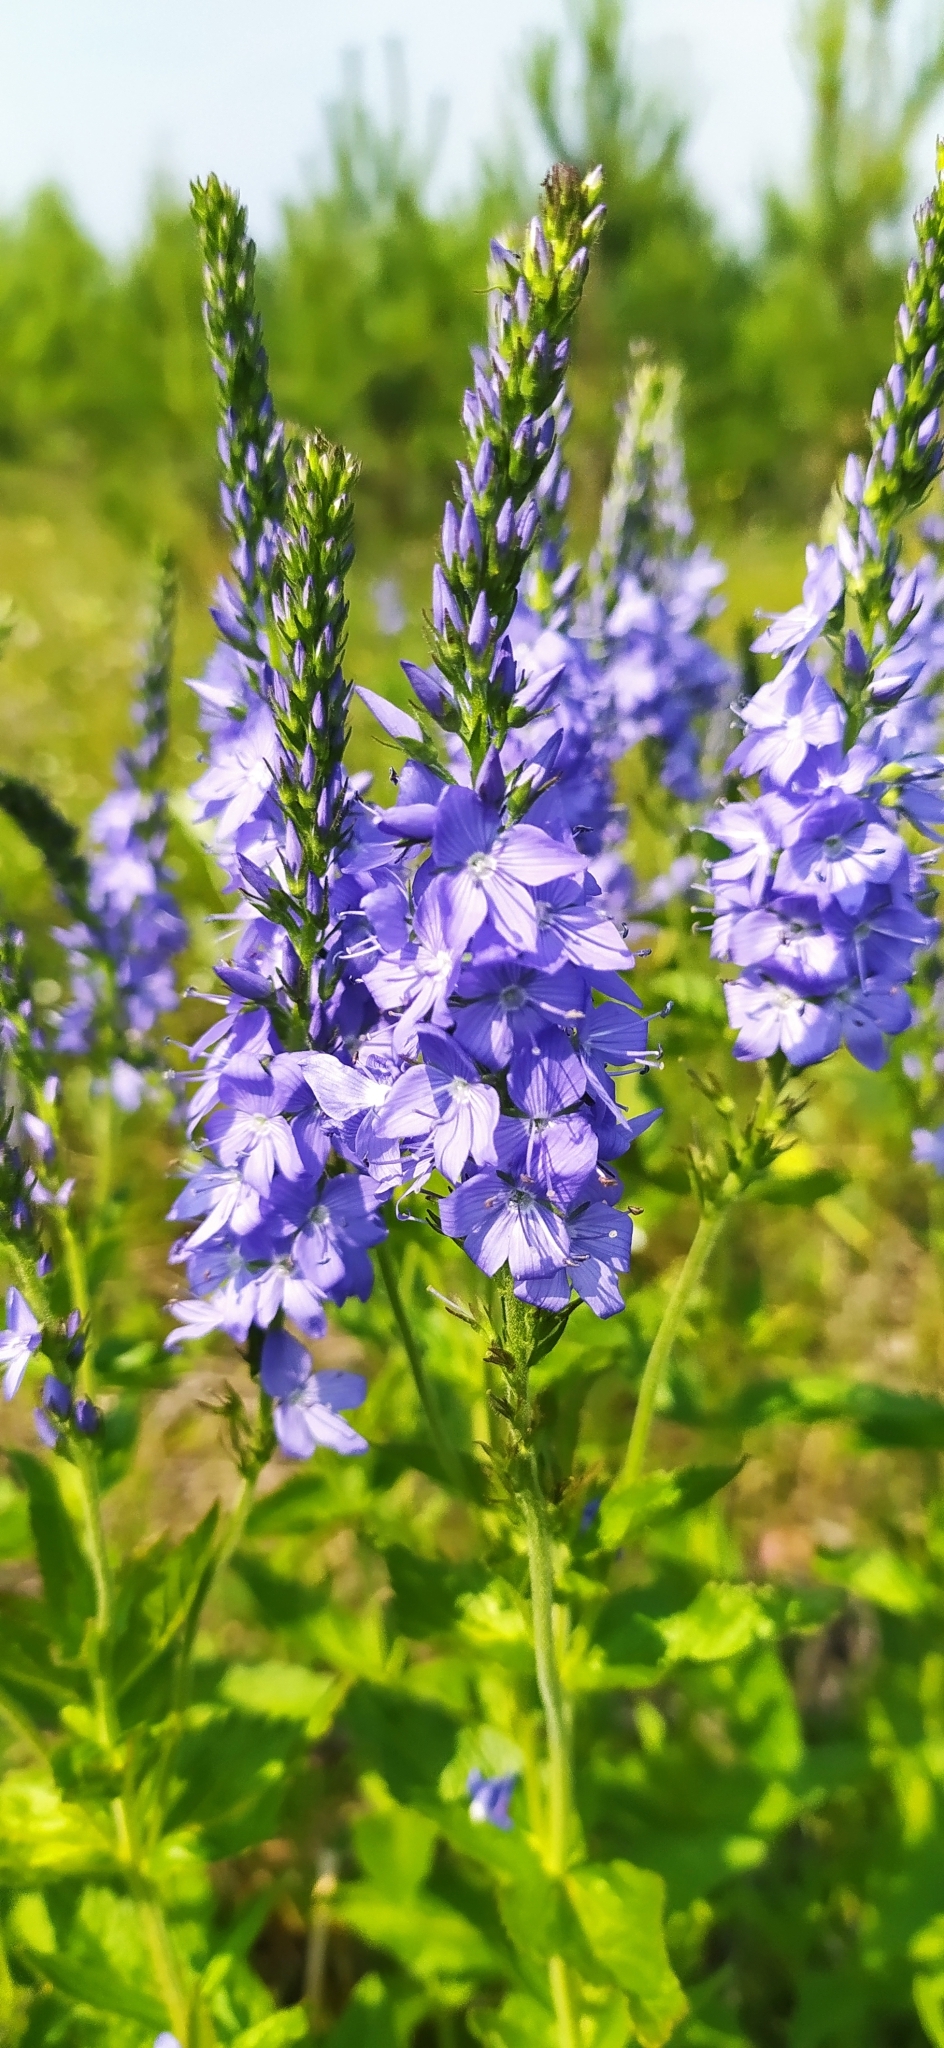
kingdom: Plantae
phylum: Tracheophyta
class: Magnoliopsida
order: Lamiales
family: Plantaginaceae
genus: Veronica
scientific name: Veronica teucrium
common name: Large speedwell
